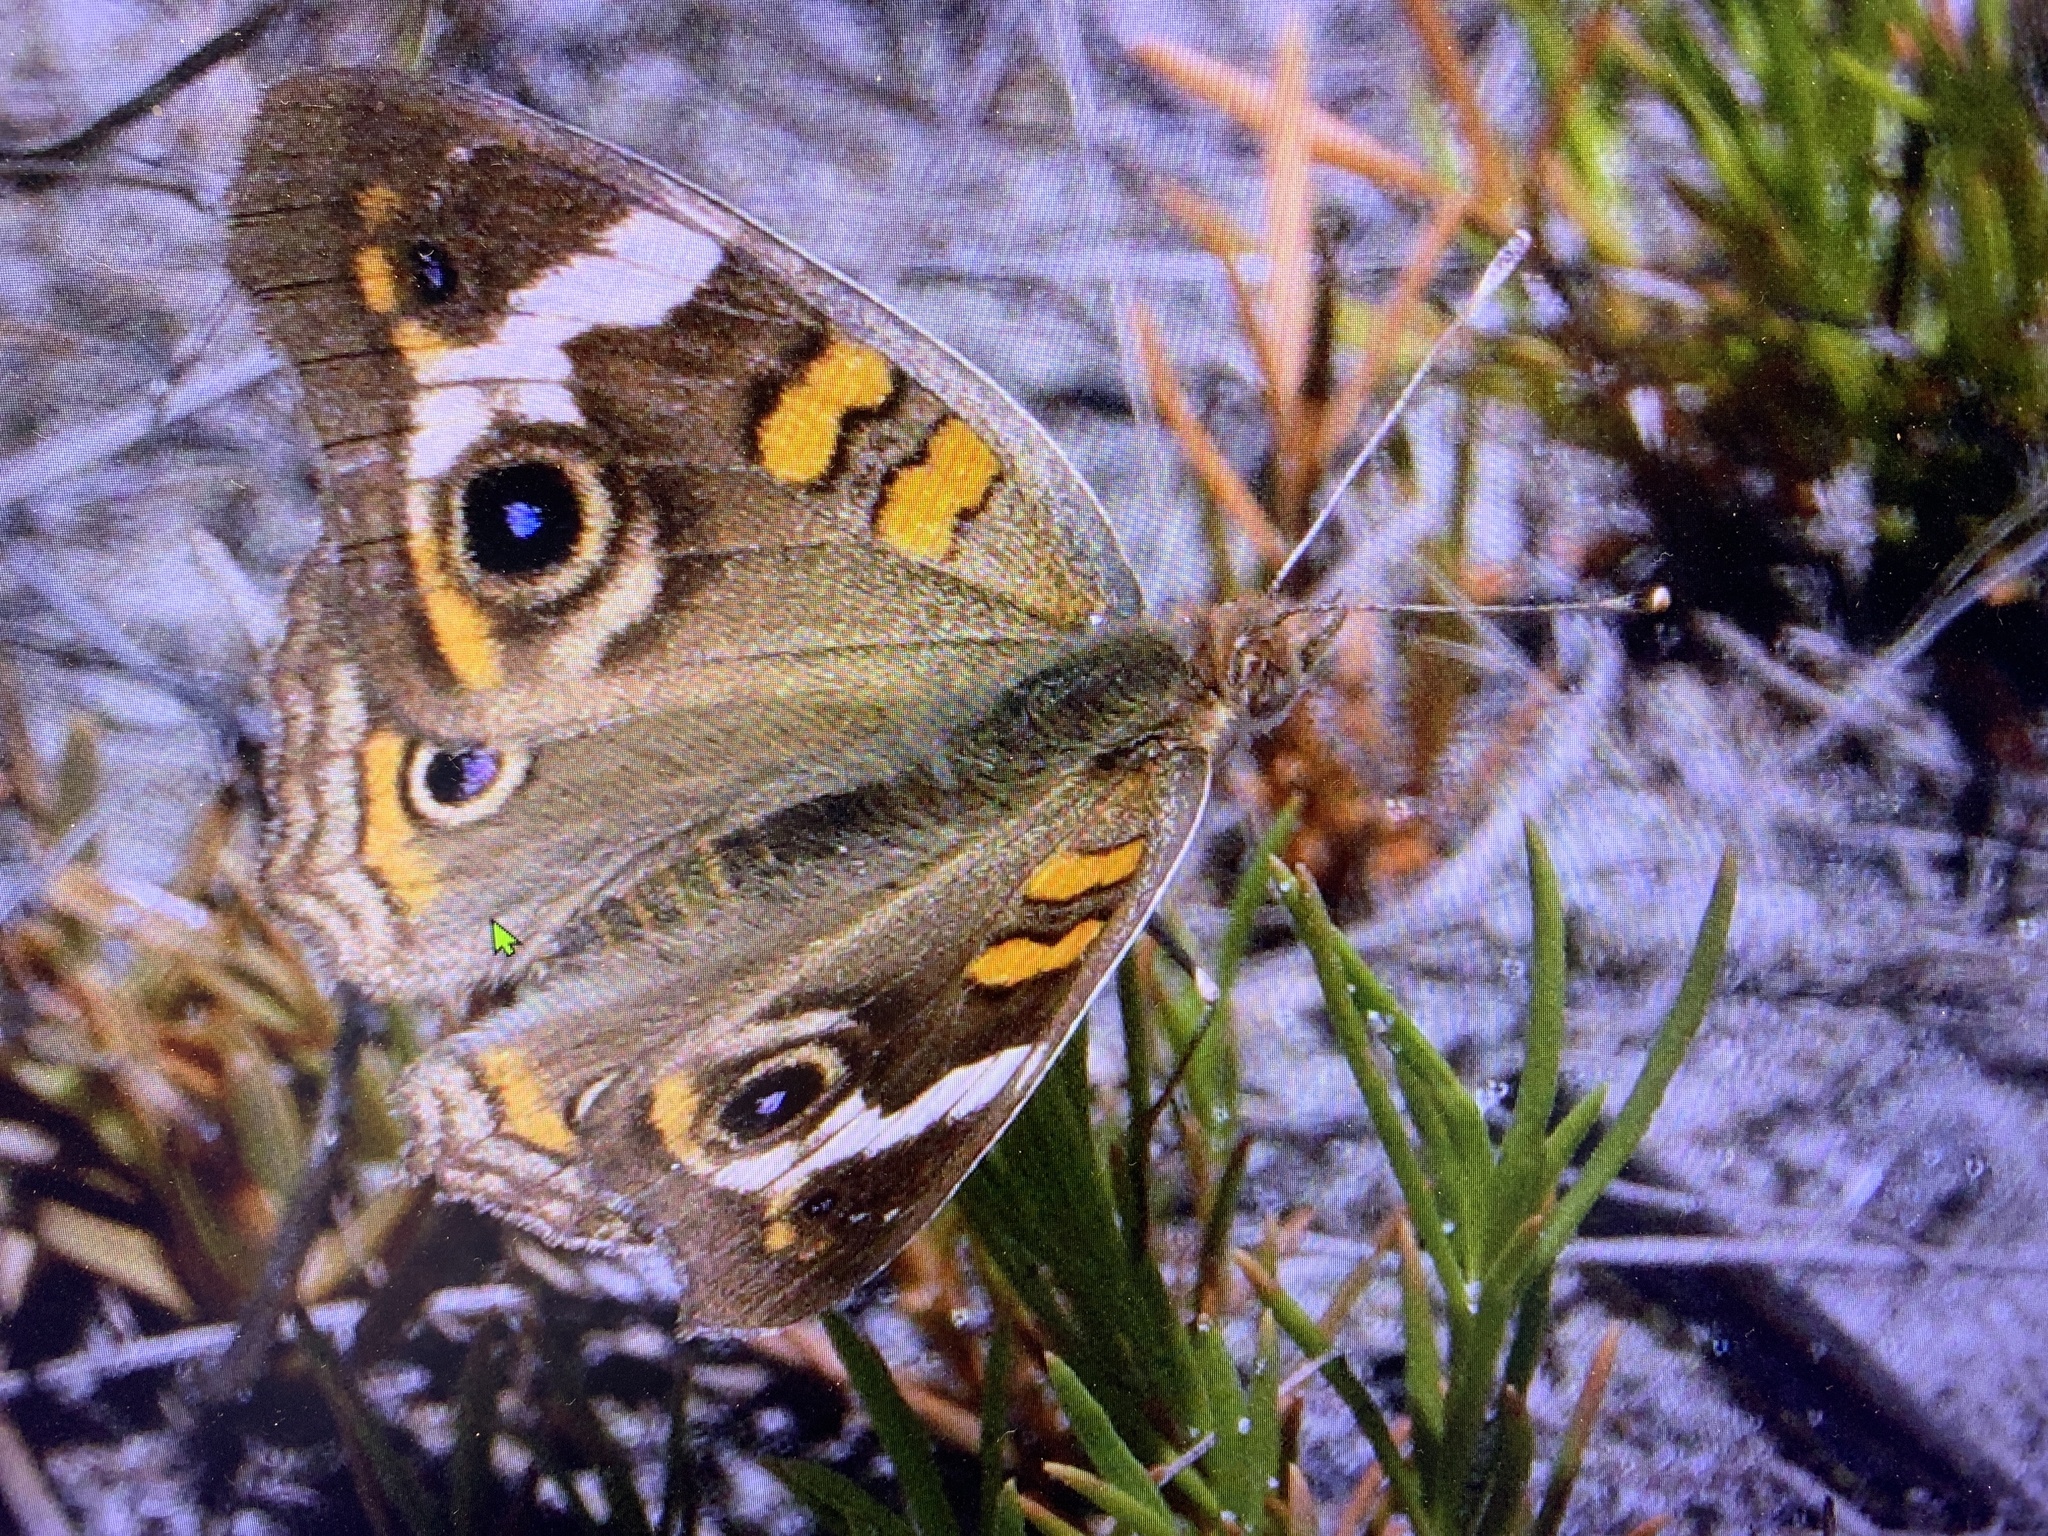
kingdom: Animalia
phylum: Arthropoda
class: Insecta
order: Lepidoptera
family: Nymphalidae
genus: Junonia
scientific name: Junonia coenia
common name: Common buckeye
